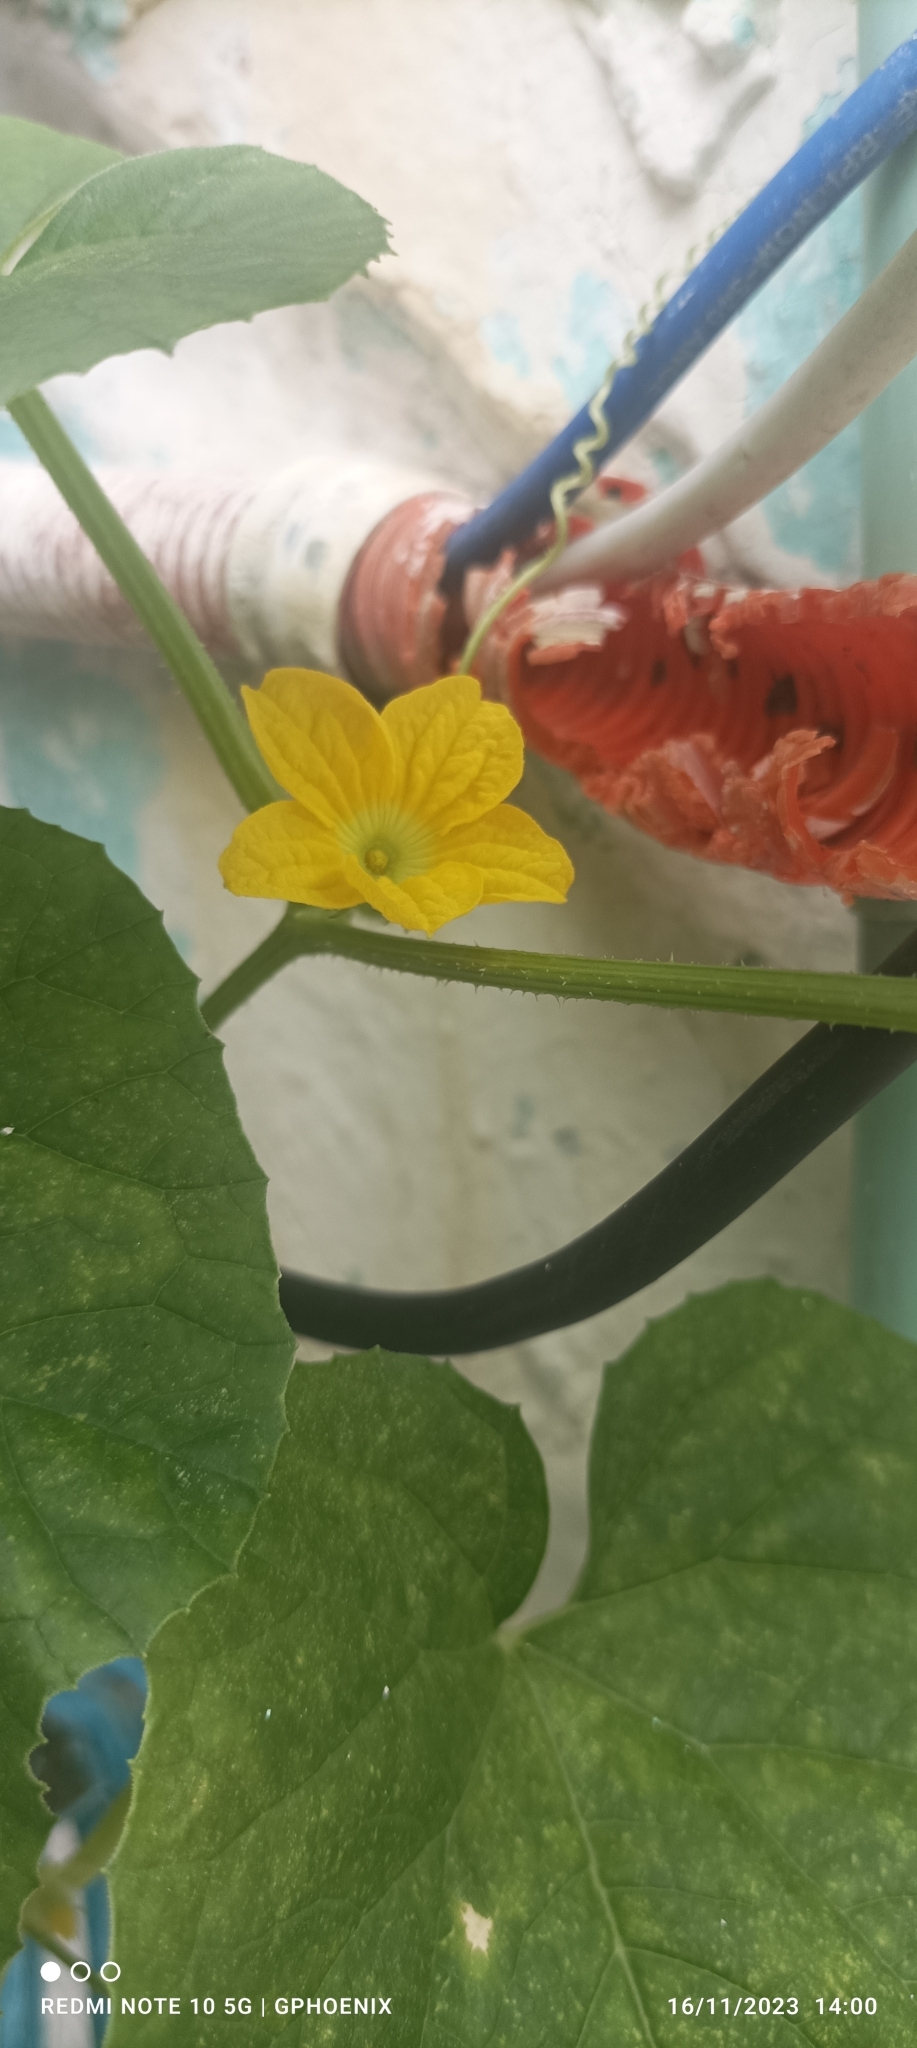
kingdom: Plantae
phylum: Tracheophyta
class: Magnoliopsida
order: Cucurbitales
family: Cucurbitaceae
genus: Cucumis
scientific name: Cucumis melo
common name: Melon
